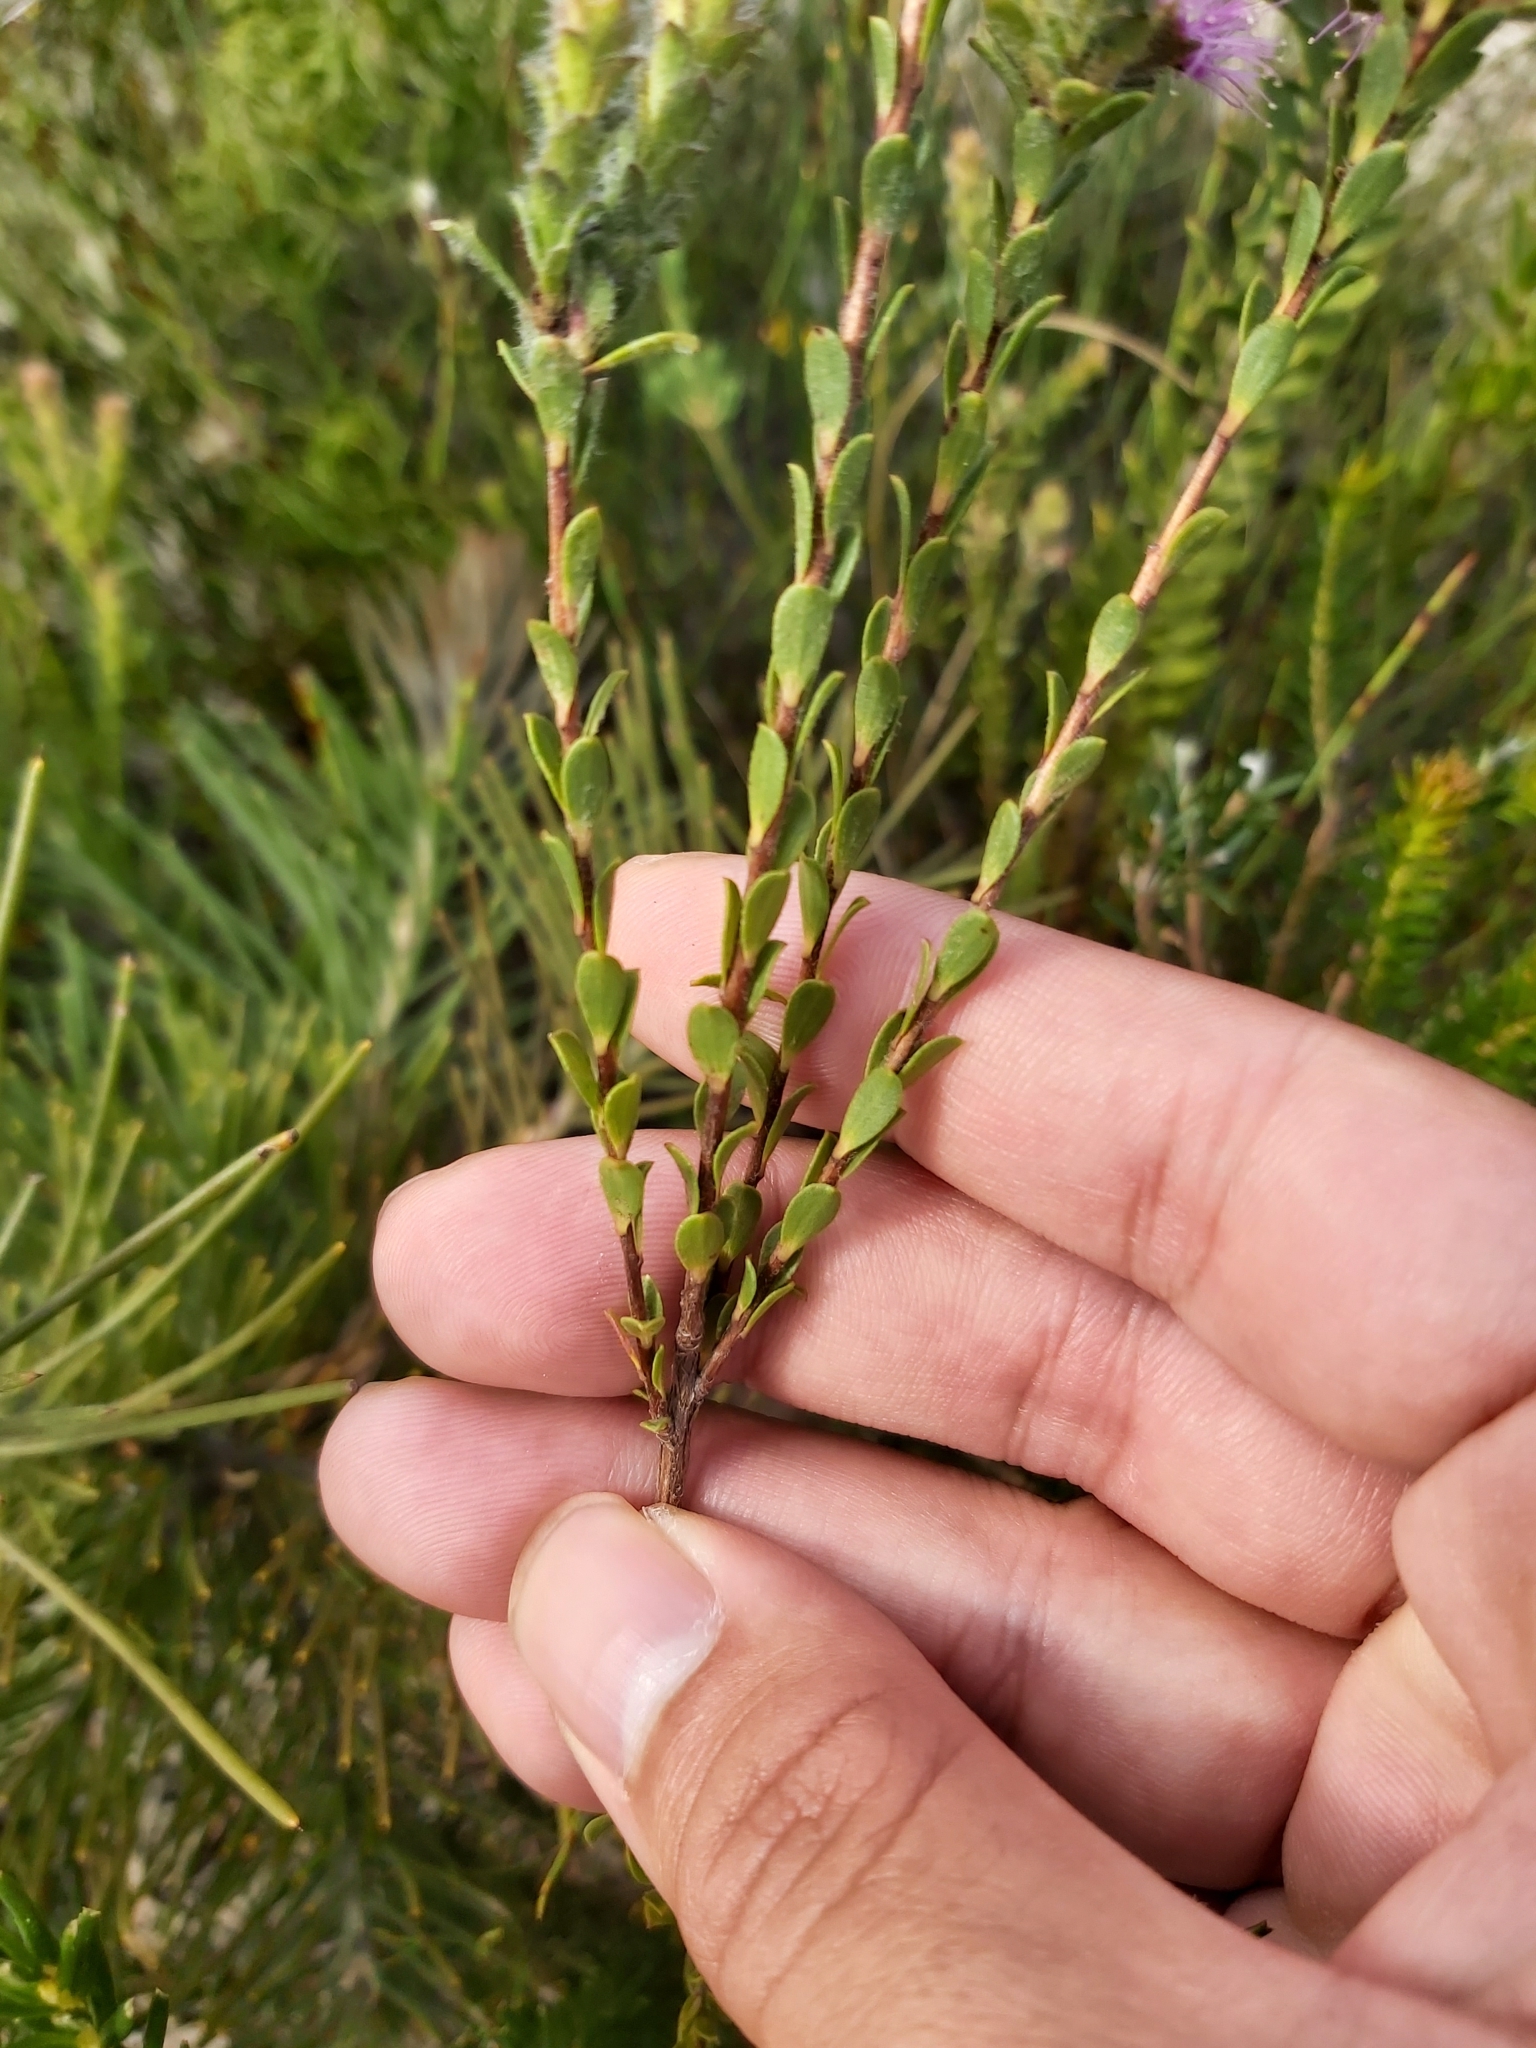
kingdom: Plantae
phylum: Tracheophyta
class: Magnoliopsida
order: Myrtales
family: Myrtaceae
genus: Kunzea
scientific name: Kunzea capitata
